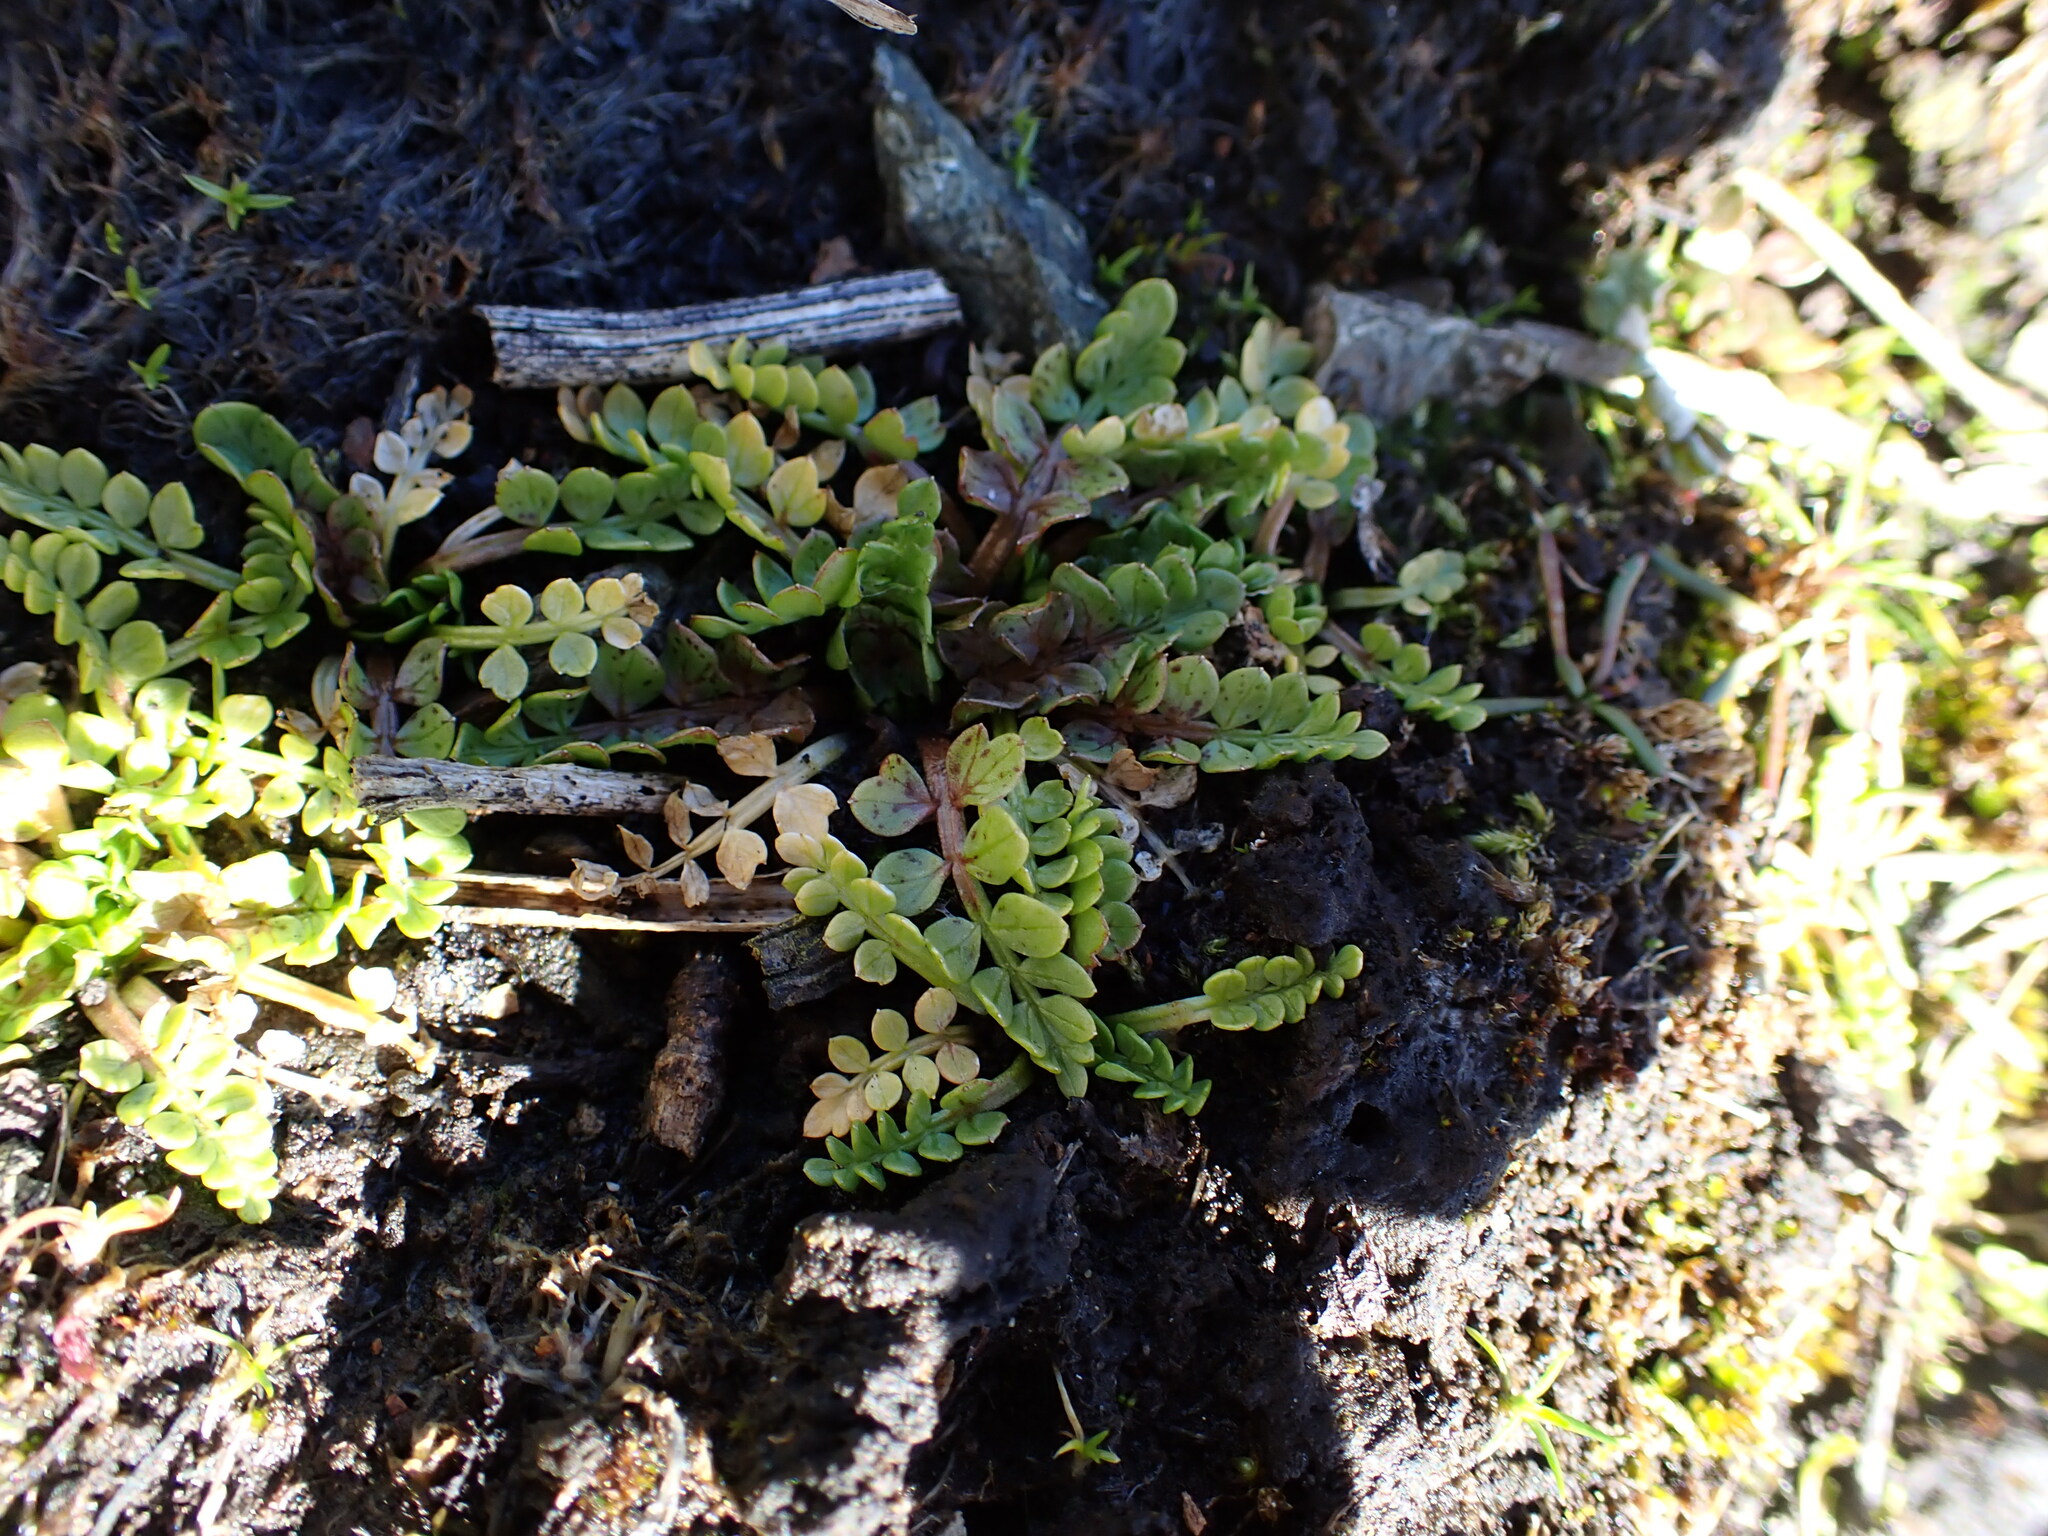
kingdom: Plantae
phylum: Tracheophyta
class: Magnoliopsida
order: Brassicales
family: Limnanthaceae
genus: Limnanthes
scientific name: Limnanthes macounii
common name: Macoun's meadowfoam
